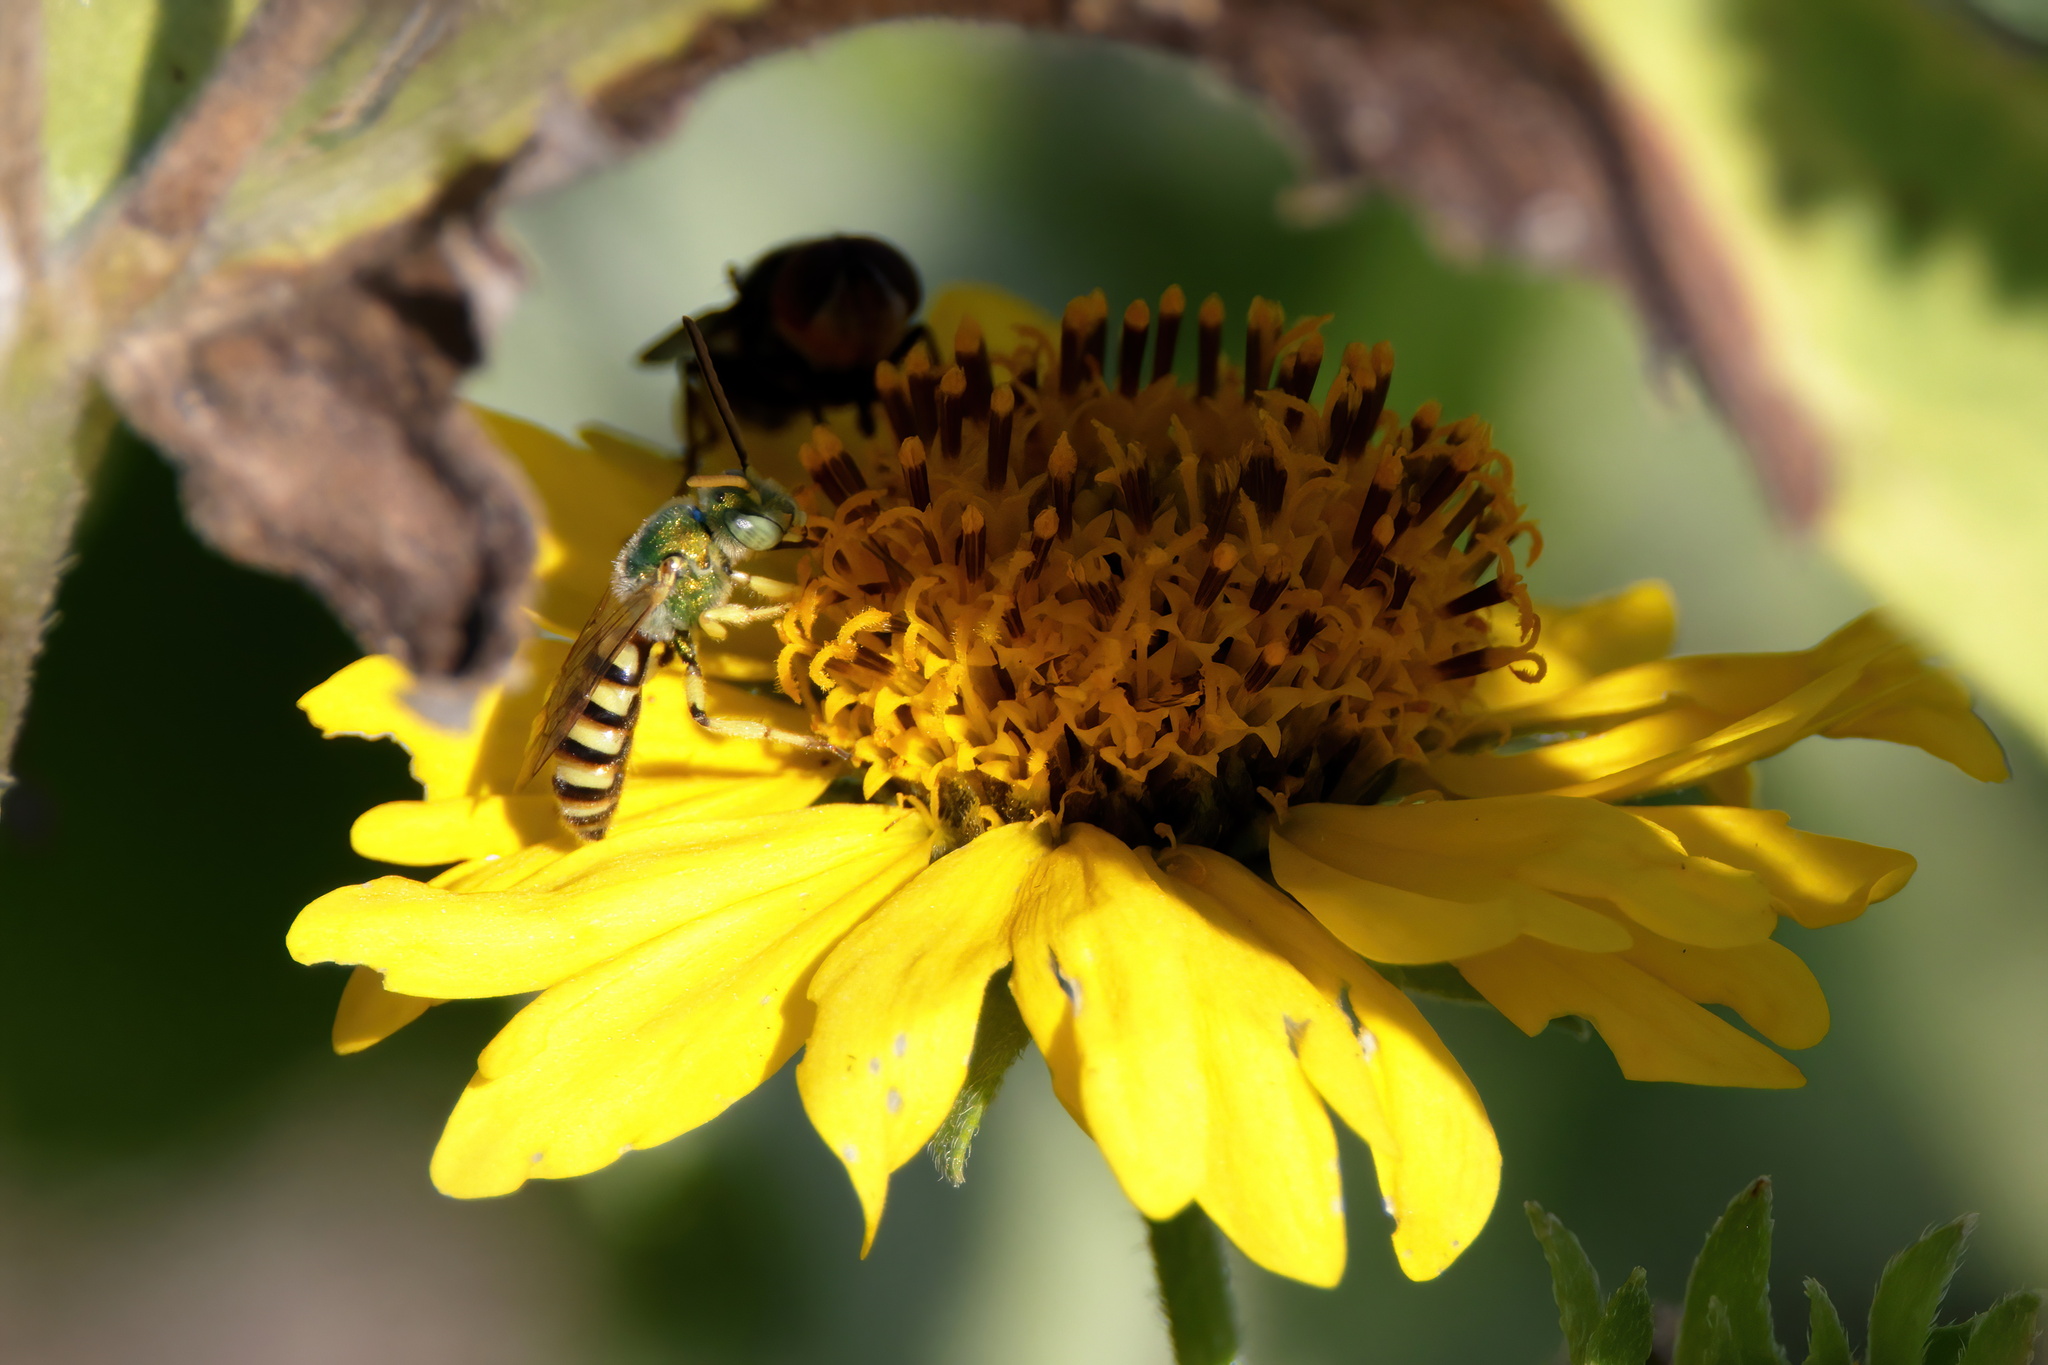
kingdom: Animalia
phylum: Arthropoda
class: Insecta
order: Hymenoptera
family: Halictidae
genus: Agapostemon
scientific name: Agapostemon melliventris
